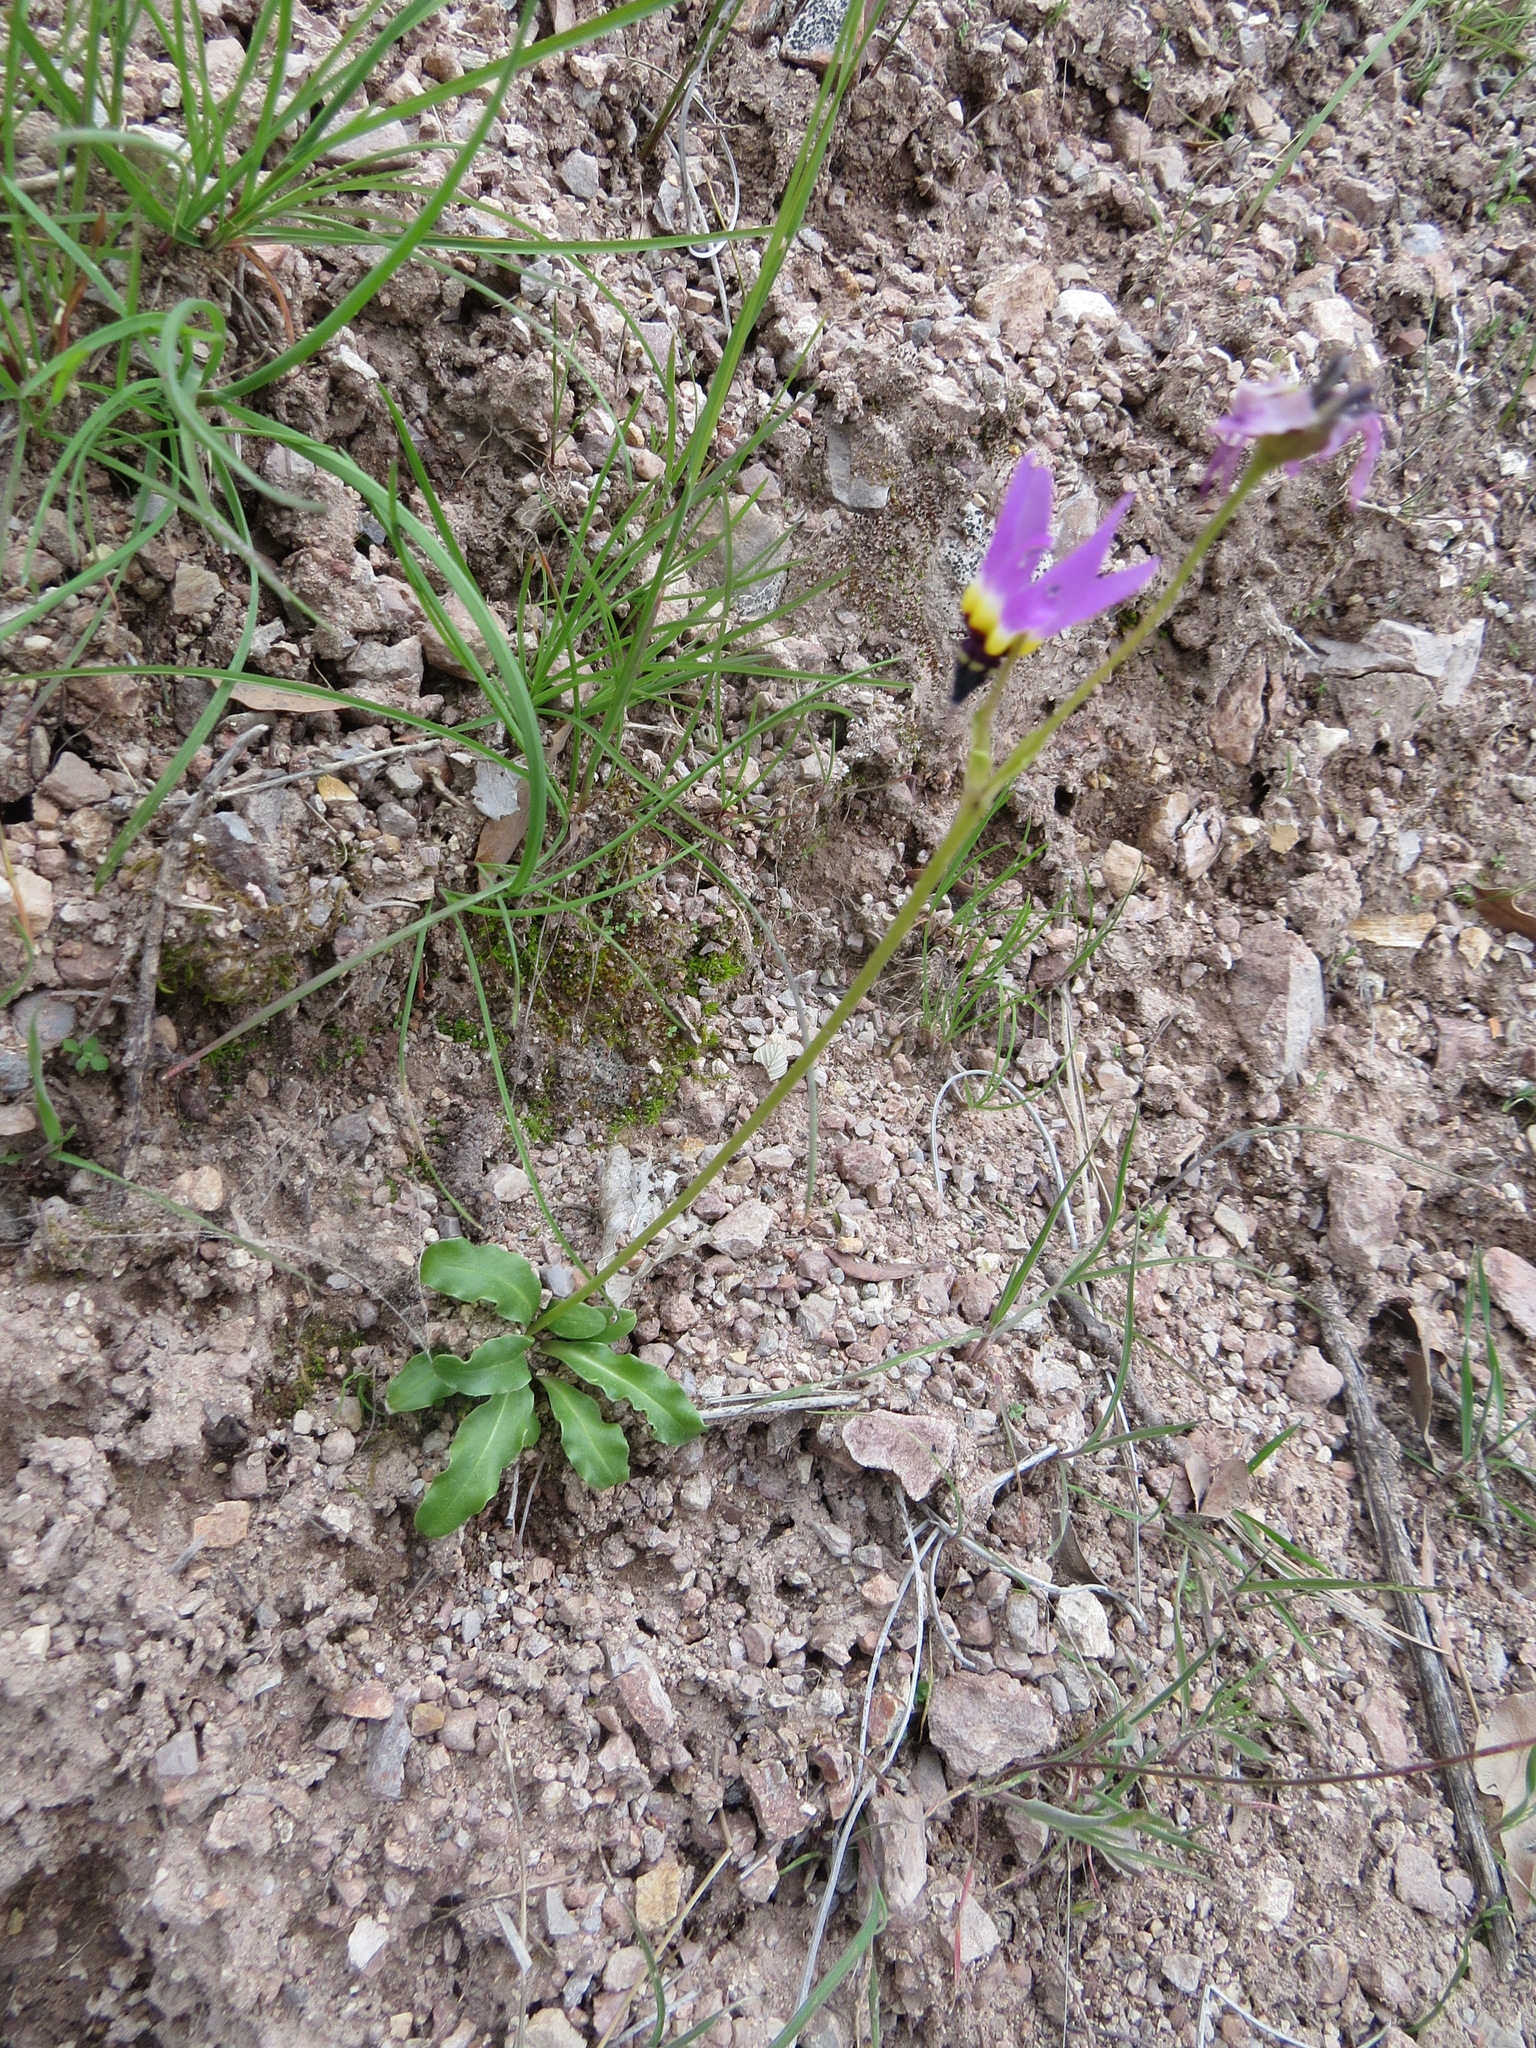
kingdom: Plantae
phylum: Tracheophyta
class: Magnoliopsida
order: Ericales
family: Primulaceae
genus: Dodecatheon
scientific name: Dodecatheon clevelandii
